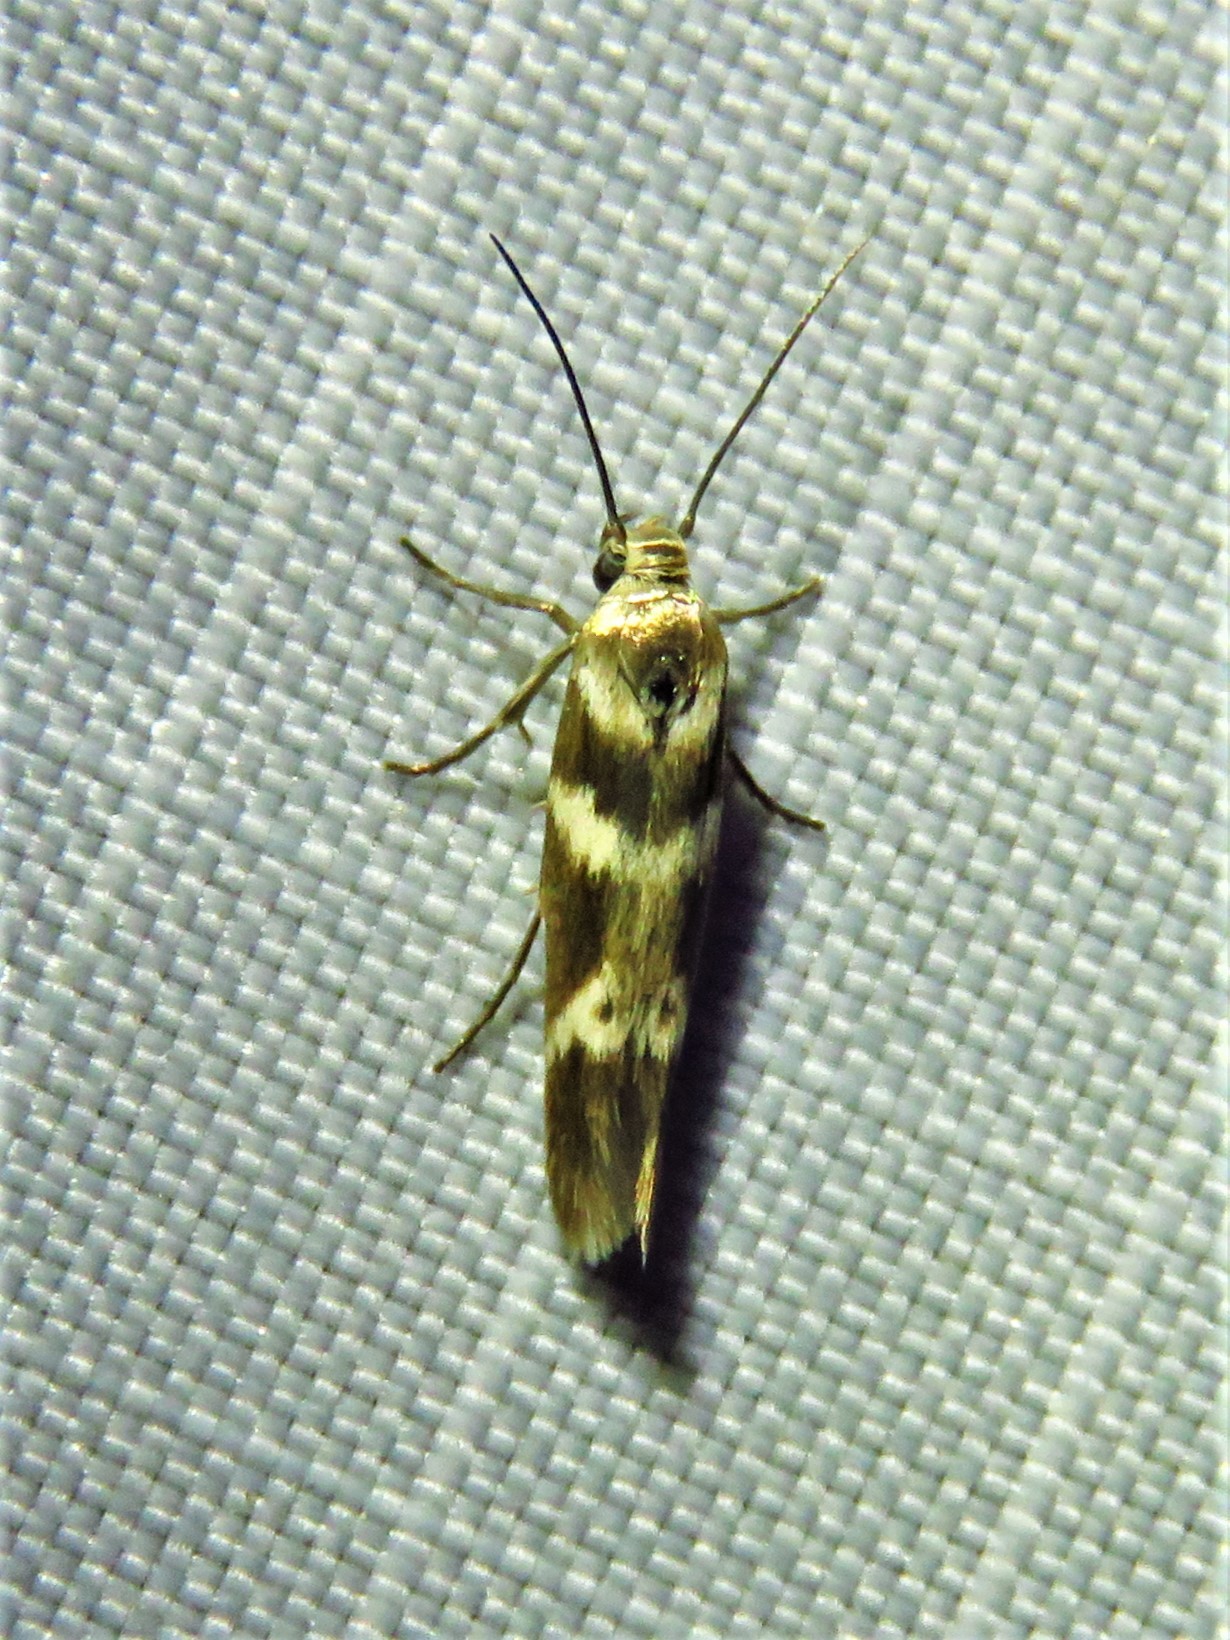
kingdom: Animalia
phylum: Arthropoda
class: Insecta
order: Lepidoptera
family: Scythrididae
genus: Scythris
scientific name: Scythris trivinctella
